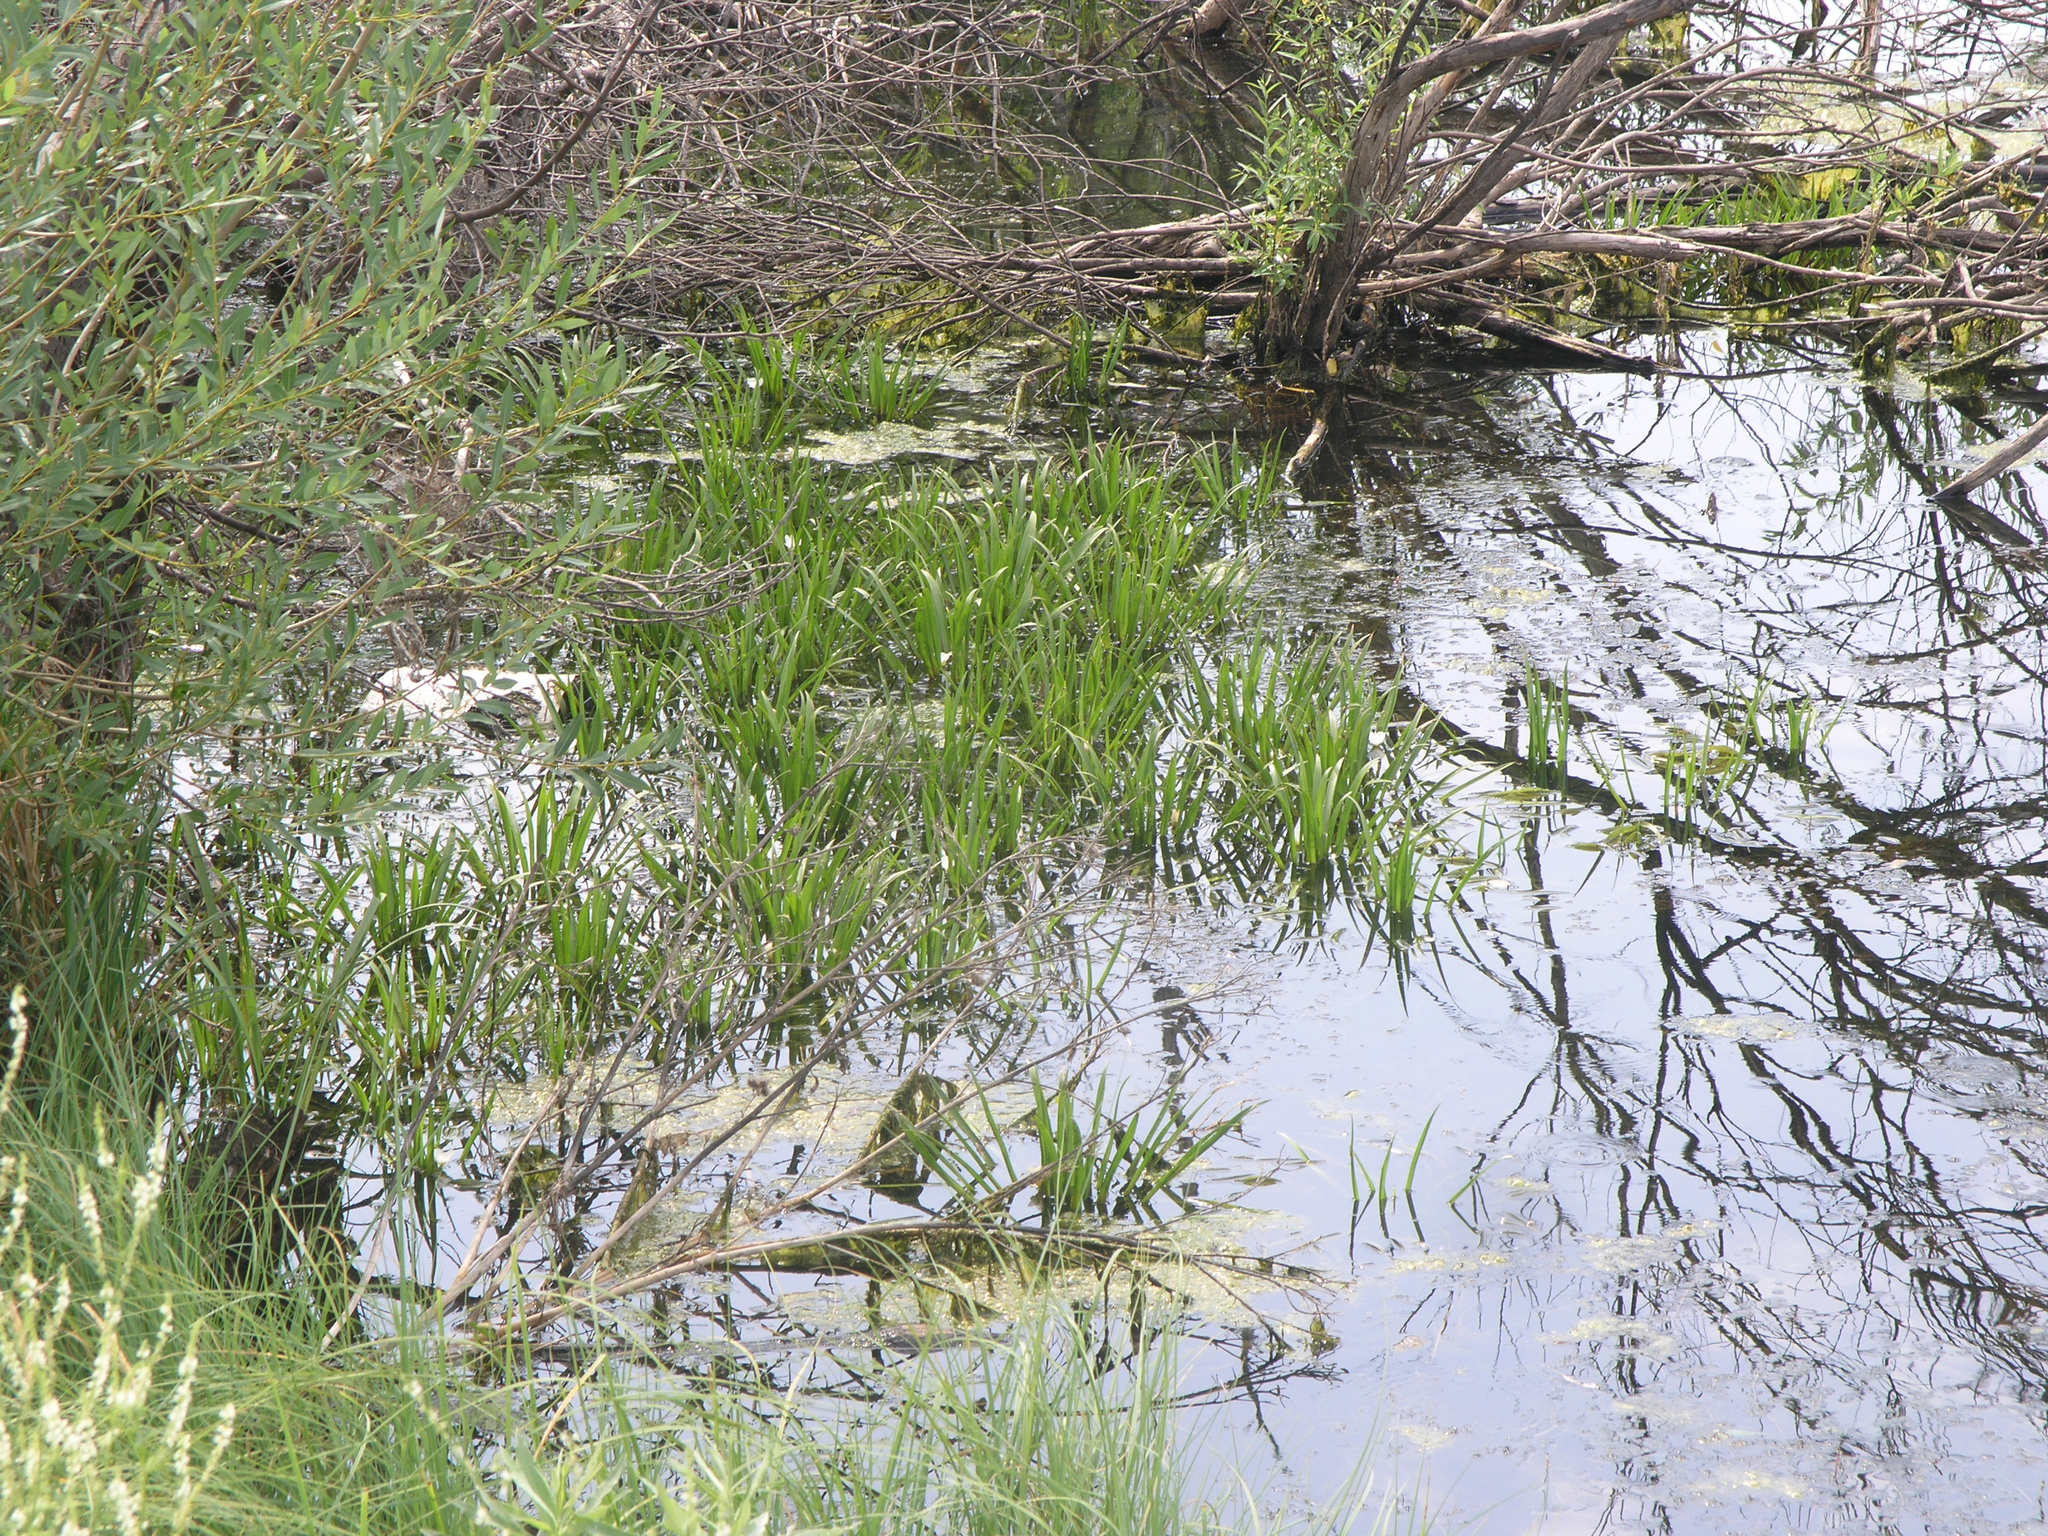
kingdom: Plantae
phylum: Tracheophyta
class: Liliopsida
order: Alismatales
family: Hydrocharitaceae
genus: Stratiotes
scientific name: Stratiotes aloides
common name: Water-soldier
